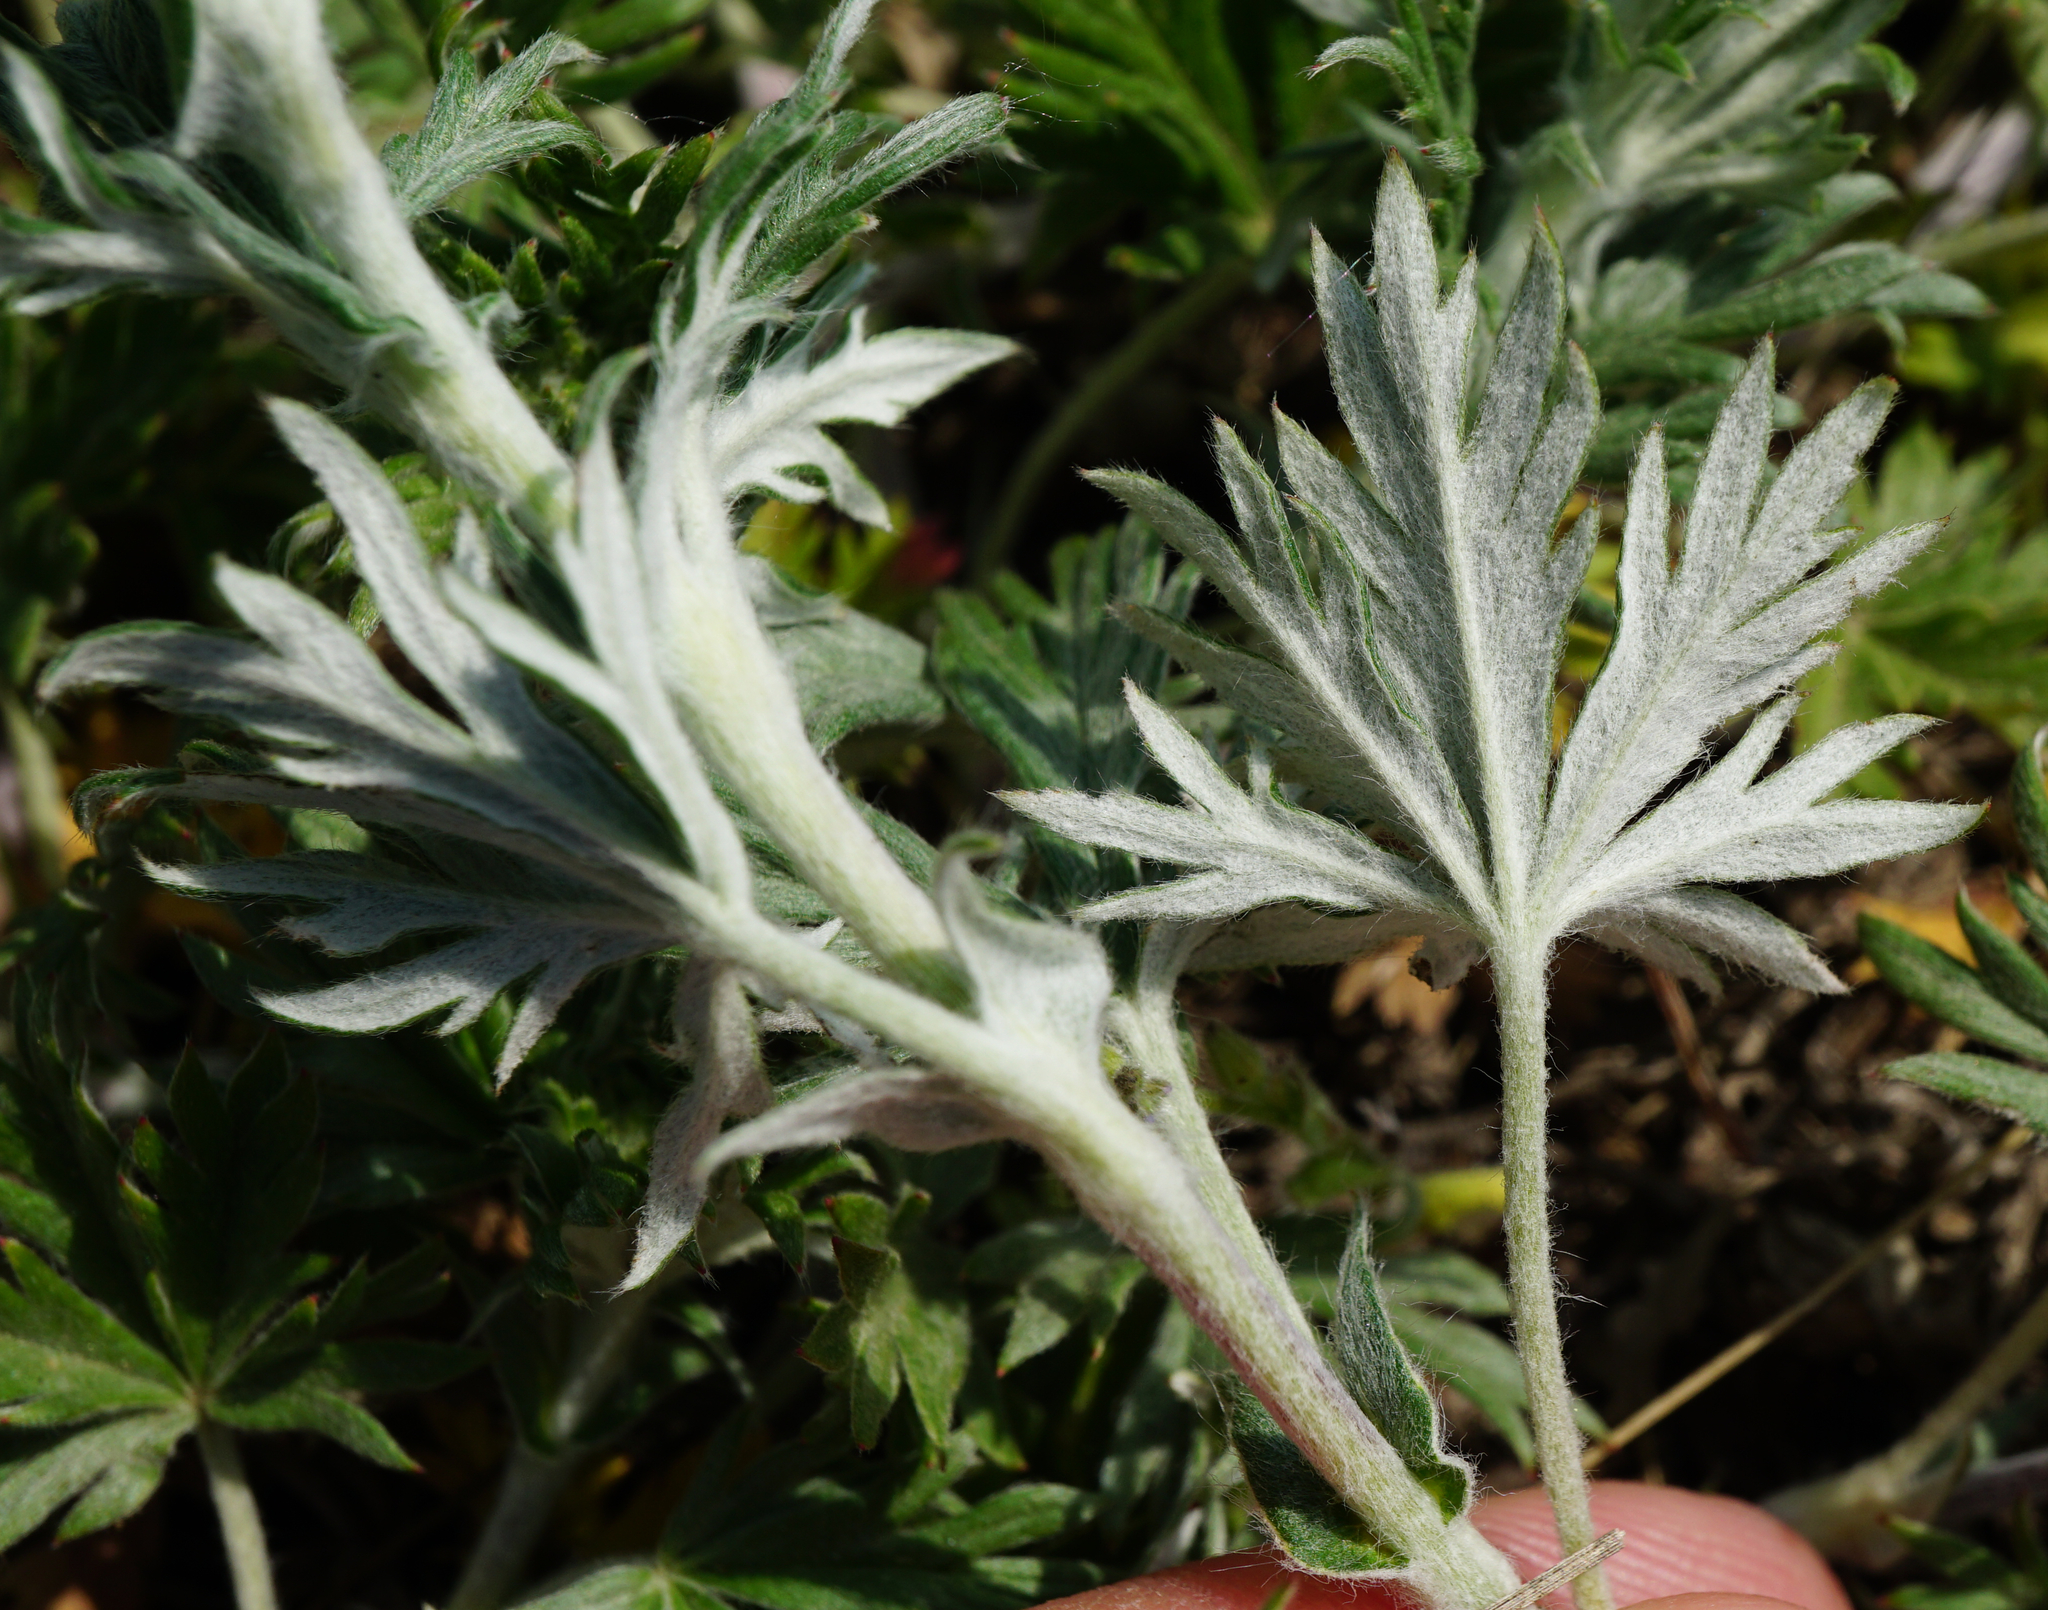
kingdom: Plantae
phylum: Tracheophyta
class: Magnoliopsida
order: Rosales
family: Rosaceae
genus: Potentilla
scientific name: Potentilla argentea
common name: Hoary cinquefoil
